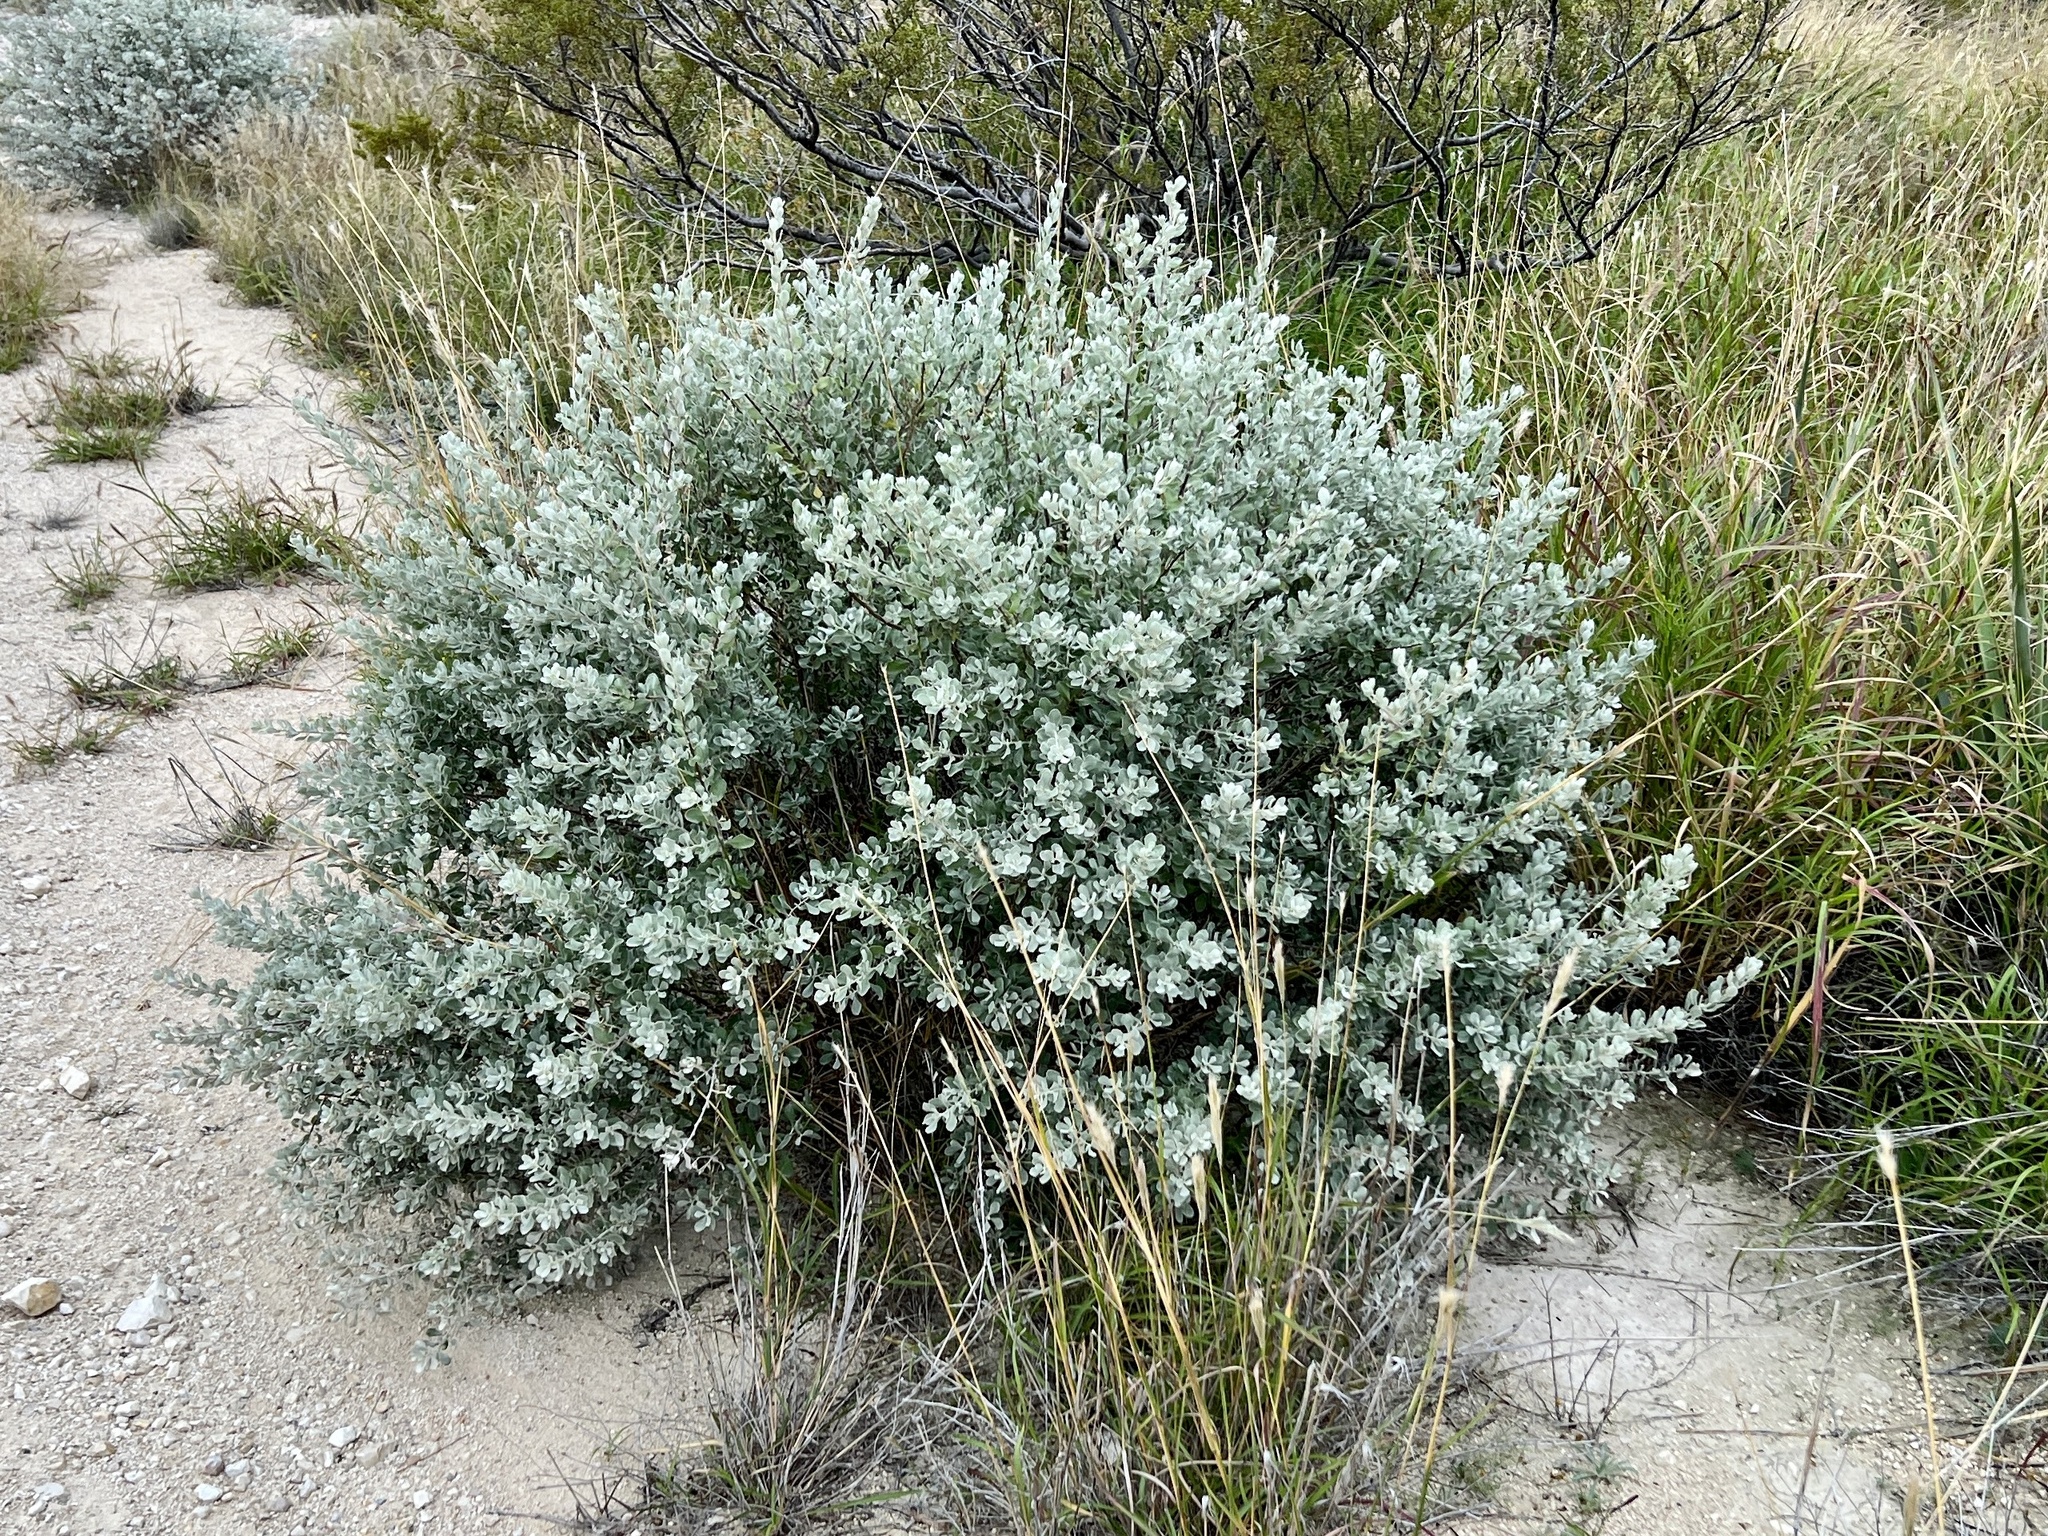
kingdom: Plantae
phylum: Tracheophyta
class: Magnoliopsida
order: Lamiales
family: Scrophulariaceae
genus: Leucophyllum
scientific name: Leucophyllum frutescens
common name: Texas silverleaf
